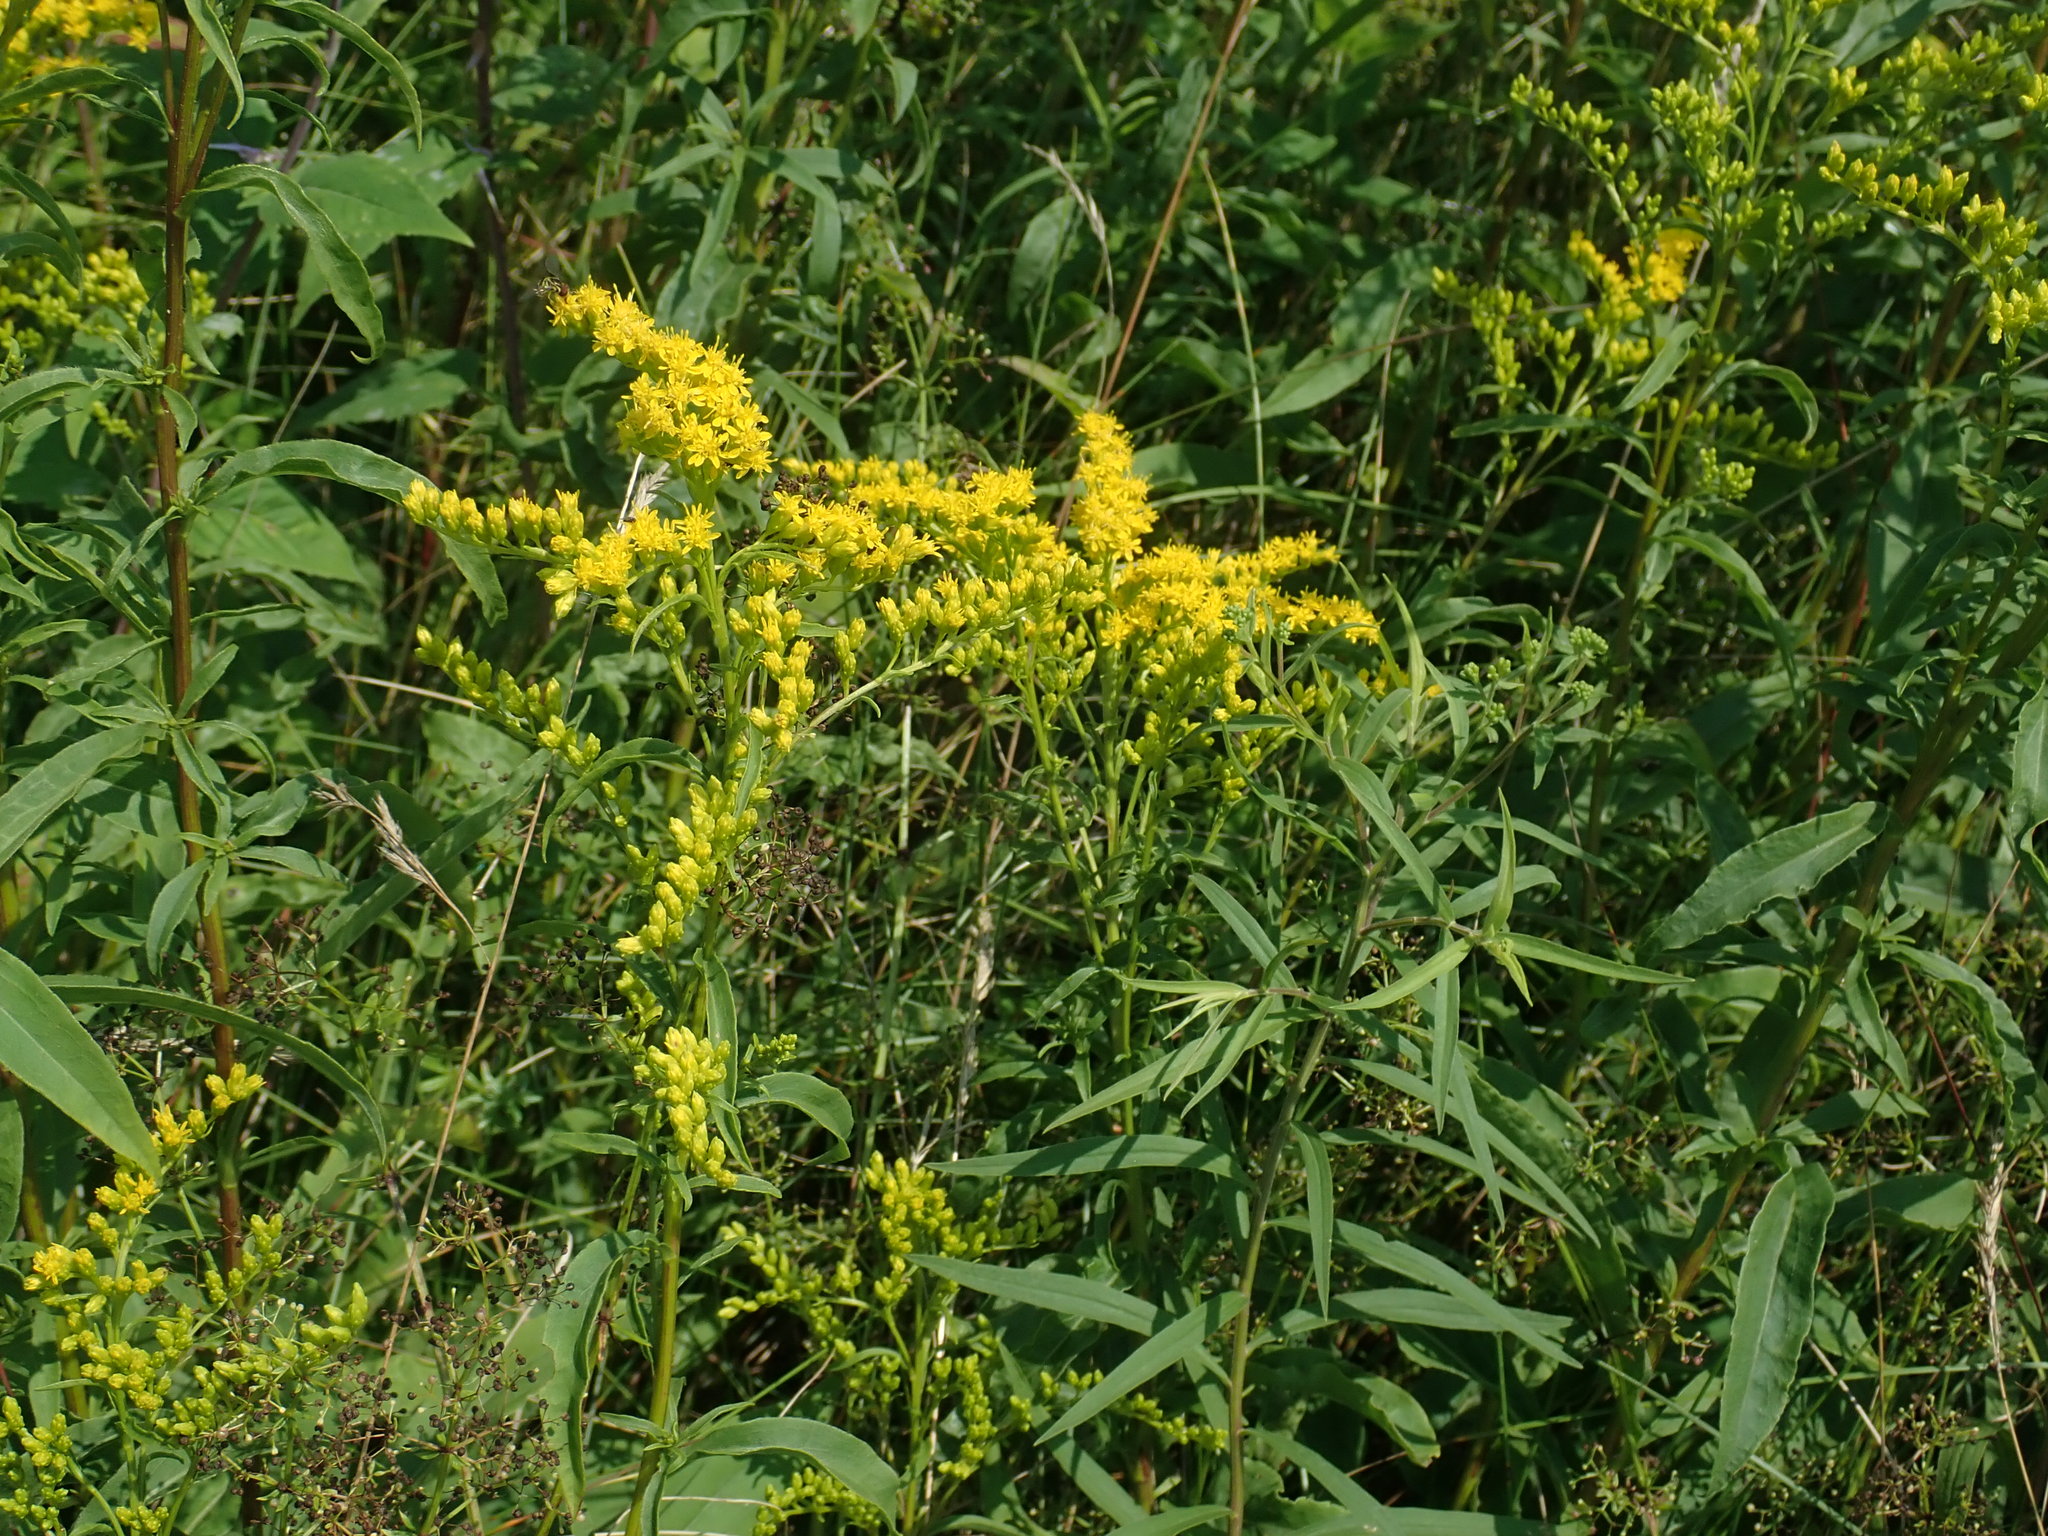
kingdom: Plantae
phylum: Tracheophyta
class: Magnoliopsida
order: Asterales
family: Asteraceae
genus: Solidago
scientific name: Solidago juncea
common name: Early goldenrod
